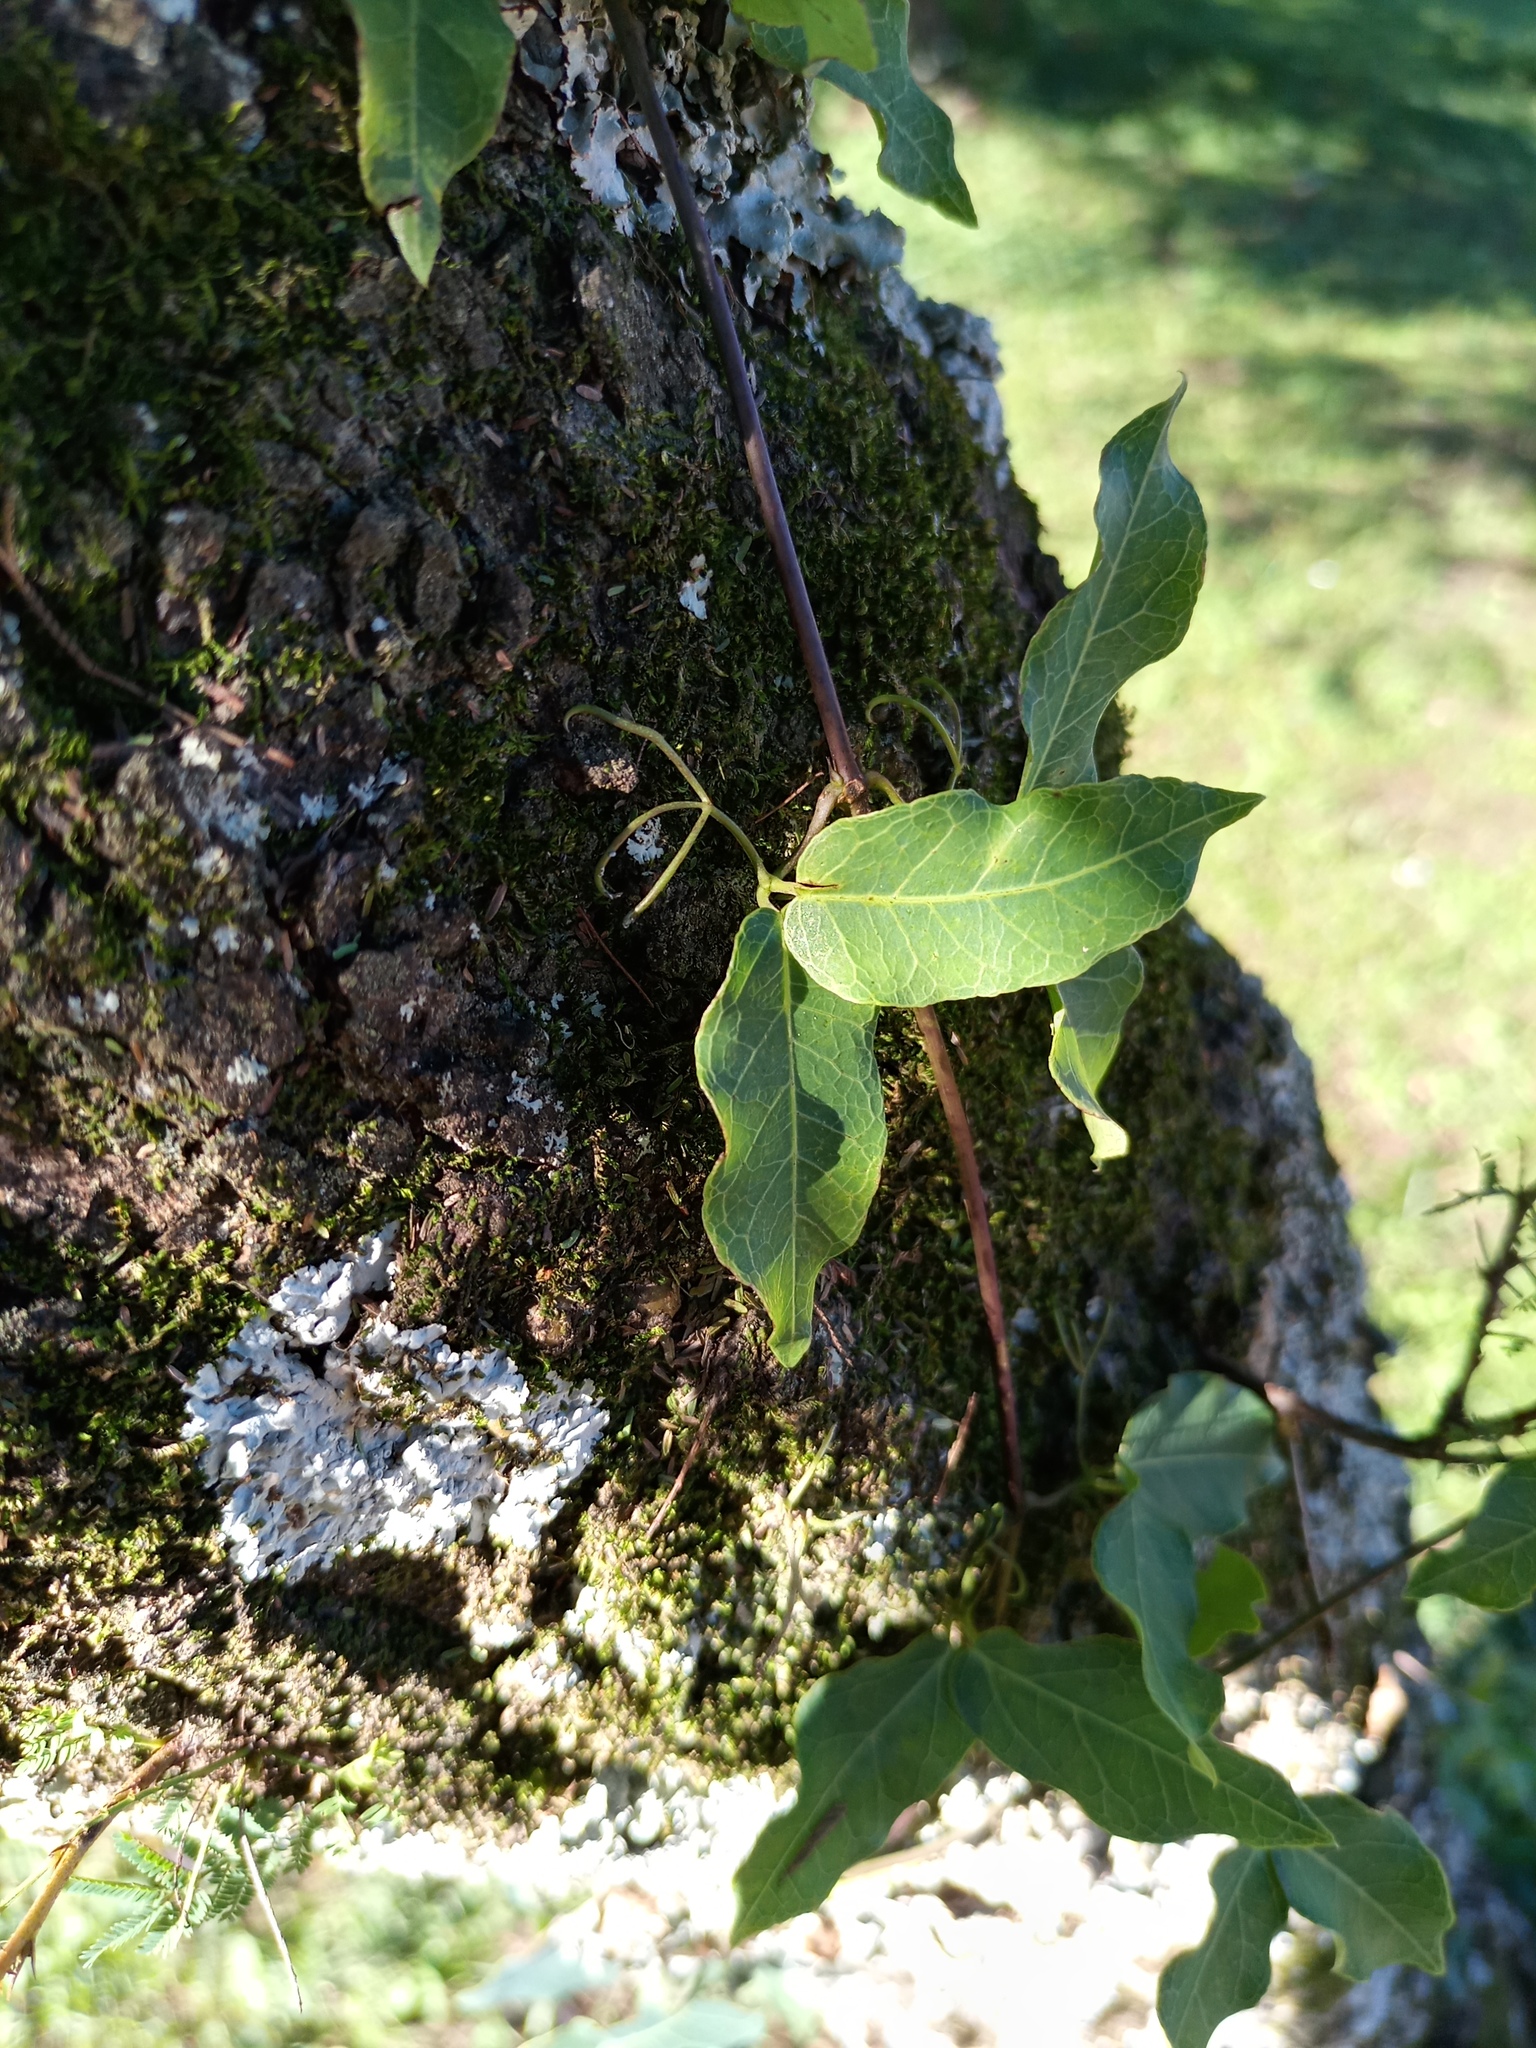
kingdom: Plantae
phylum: Tracheophyta
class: Magnoliopsida
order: Lamiales
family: Bignoniaceae
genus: Dolichandra
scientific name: Dolichandra unguis-cati
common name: Catclaw vine
